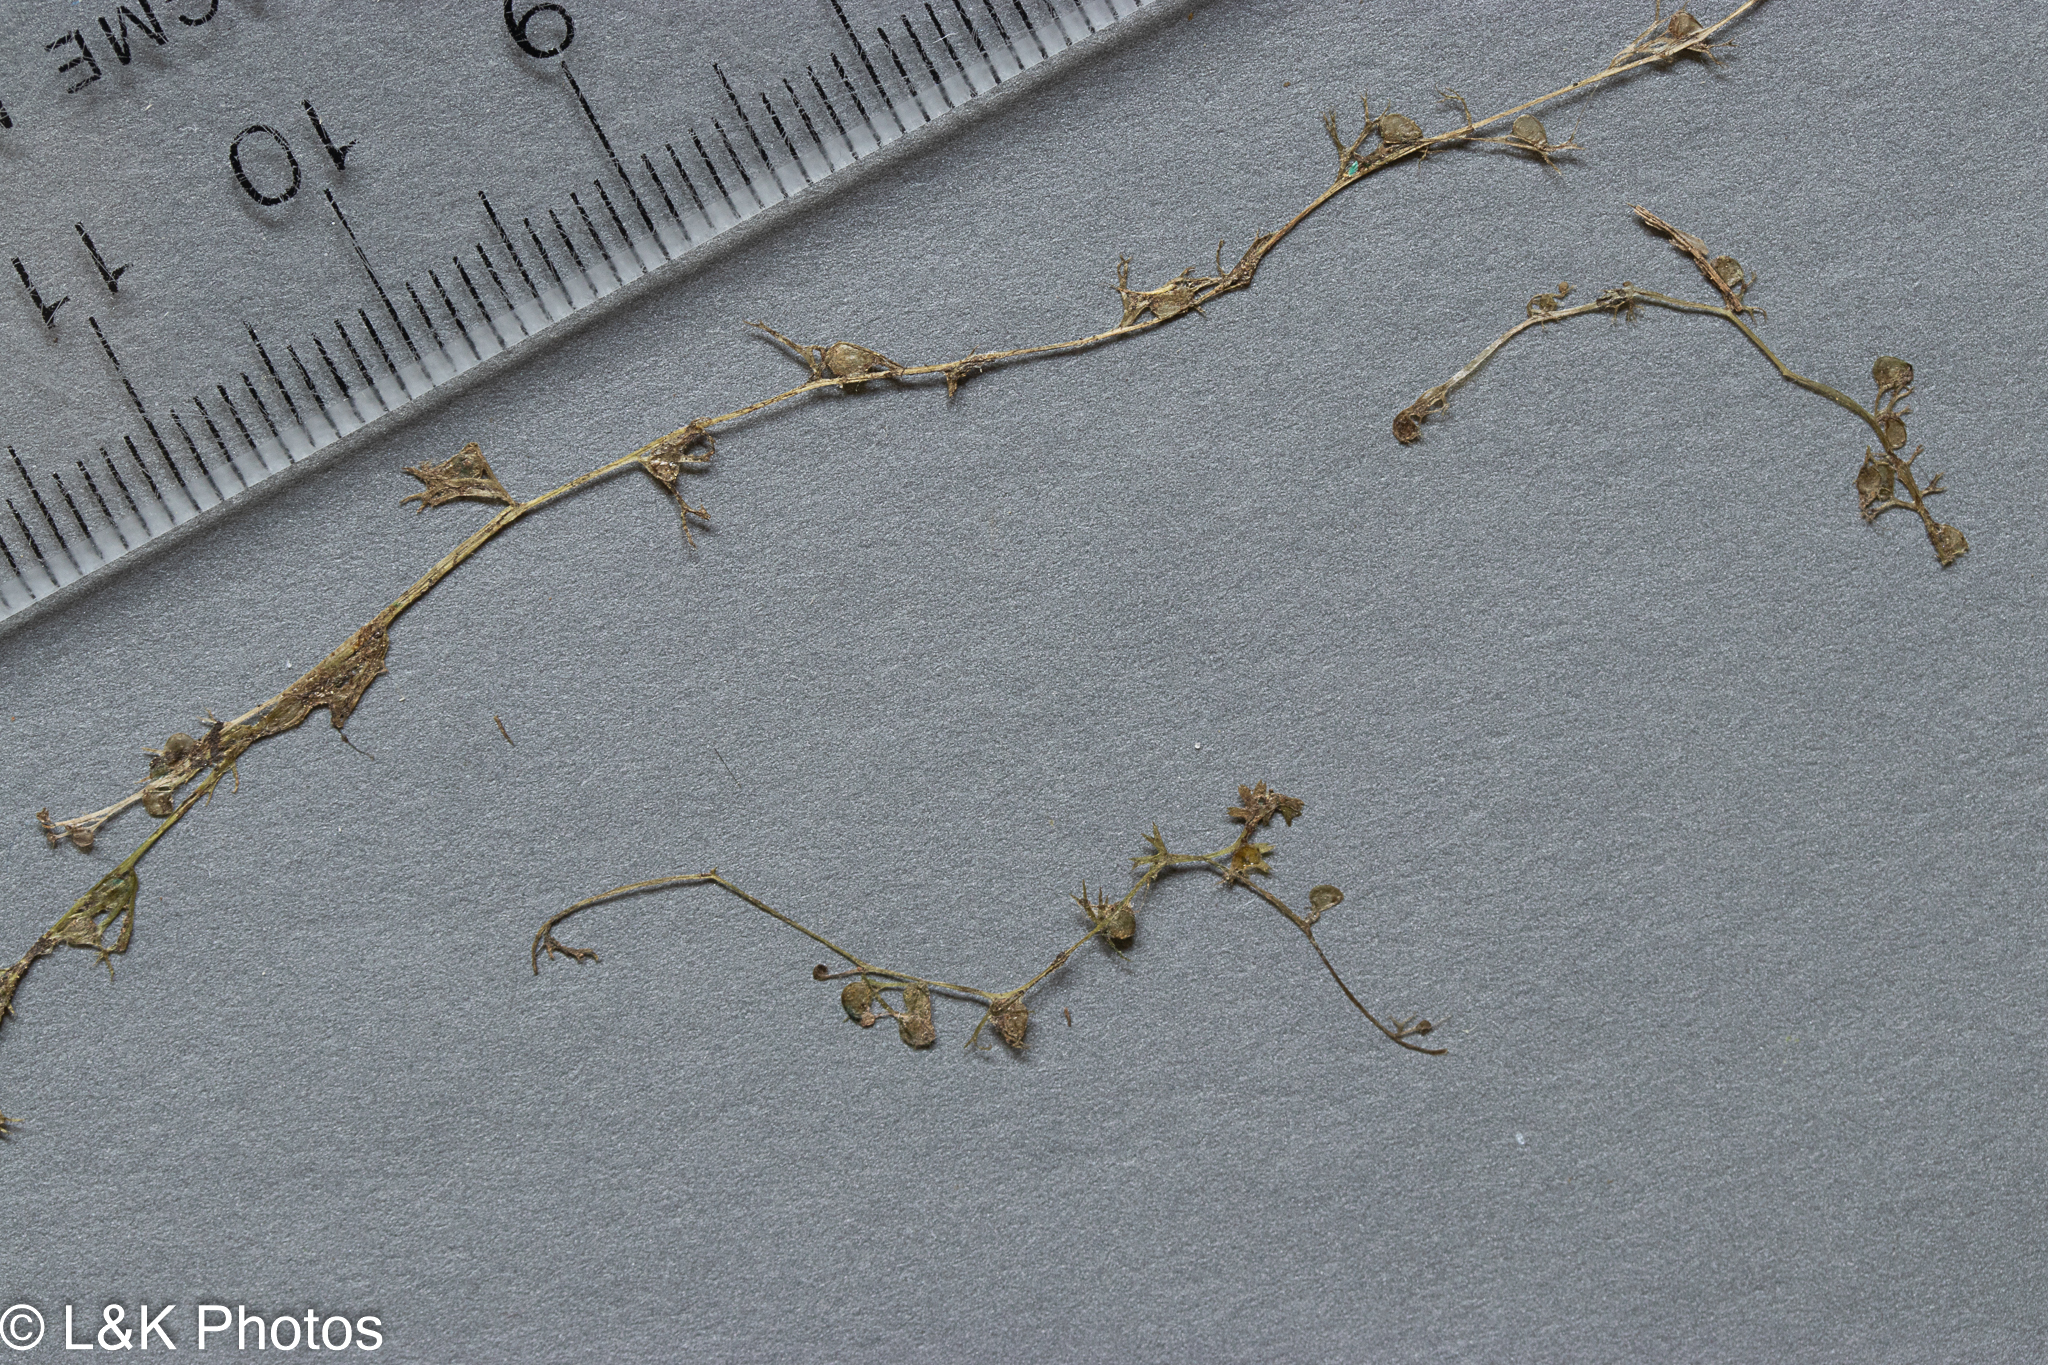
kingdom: Plantae
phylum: Tracheophyta
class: Magnoliopsida
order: Lamiales
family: Lentibulariaceae
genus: Utricularia
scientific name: Utricularia minor
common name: Lesser bladderwort
